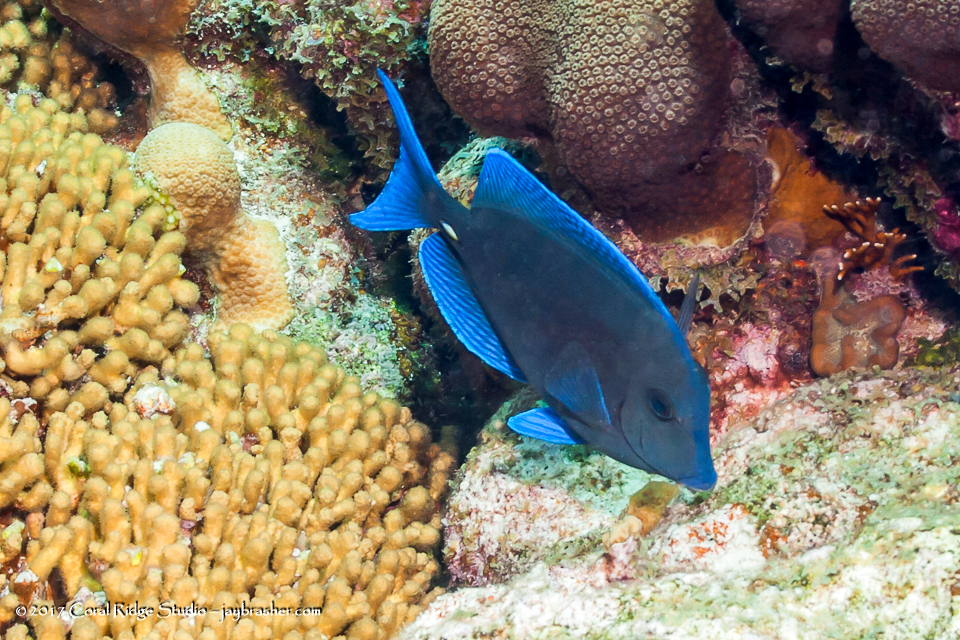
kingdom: Animalia
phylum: Chordata
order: Perciformes
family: Acanthuridae
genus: Acanthurus
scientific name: Acanthurus coeruleus
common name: Blue tang
